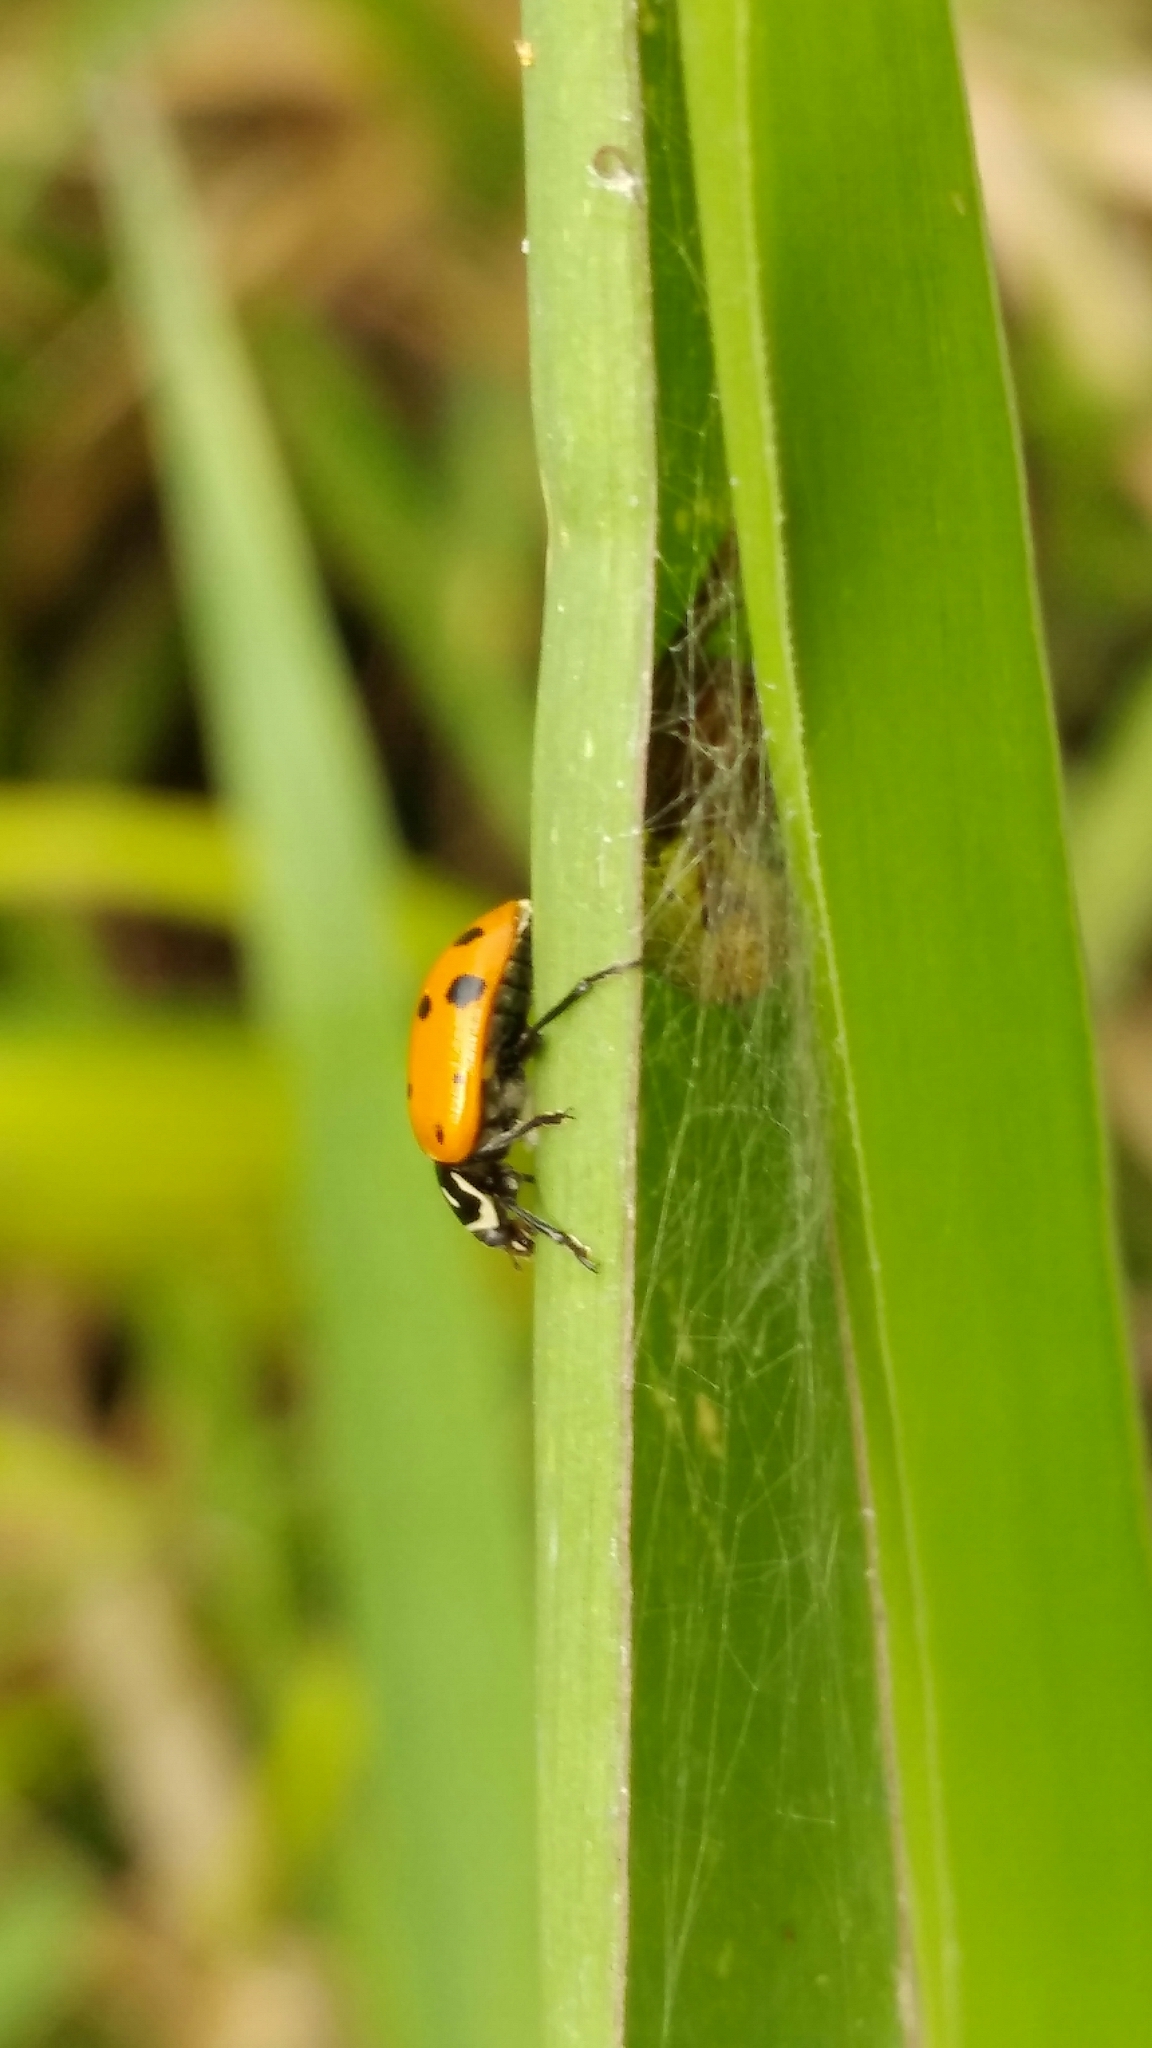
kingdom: Animalia
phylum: Arthropoda
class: Insecta
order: Coleoptera
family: Coccinellidae
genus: Hippodamia
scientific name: Hippodamia convergens
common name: Convergent lady beetle
